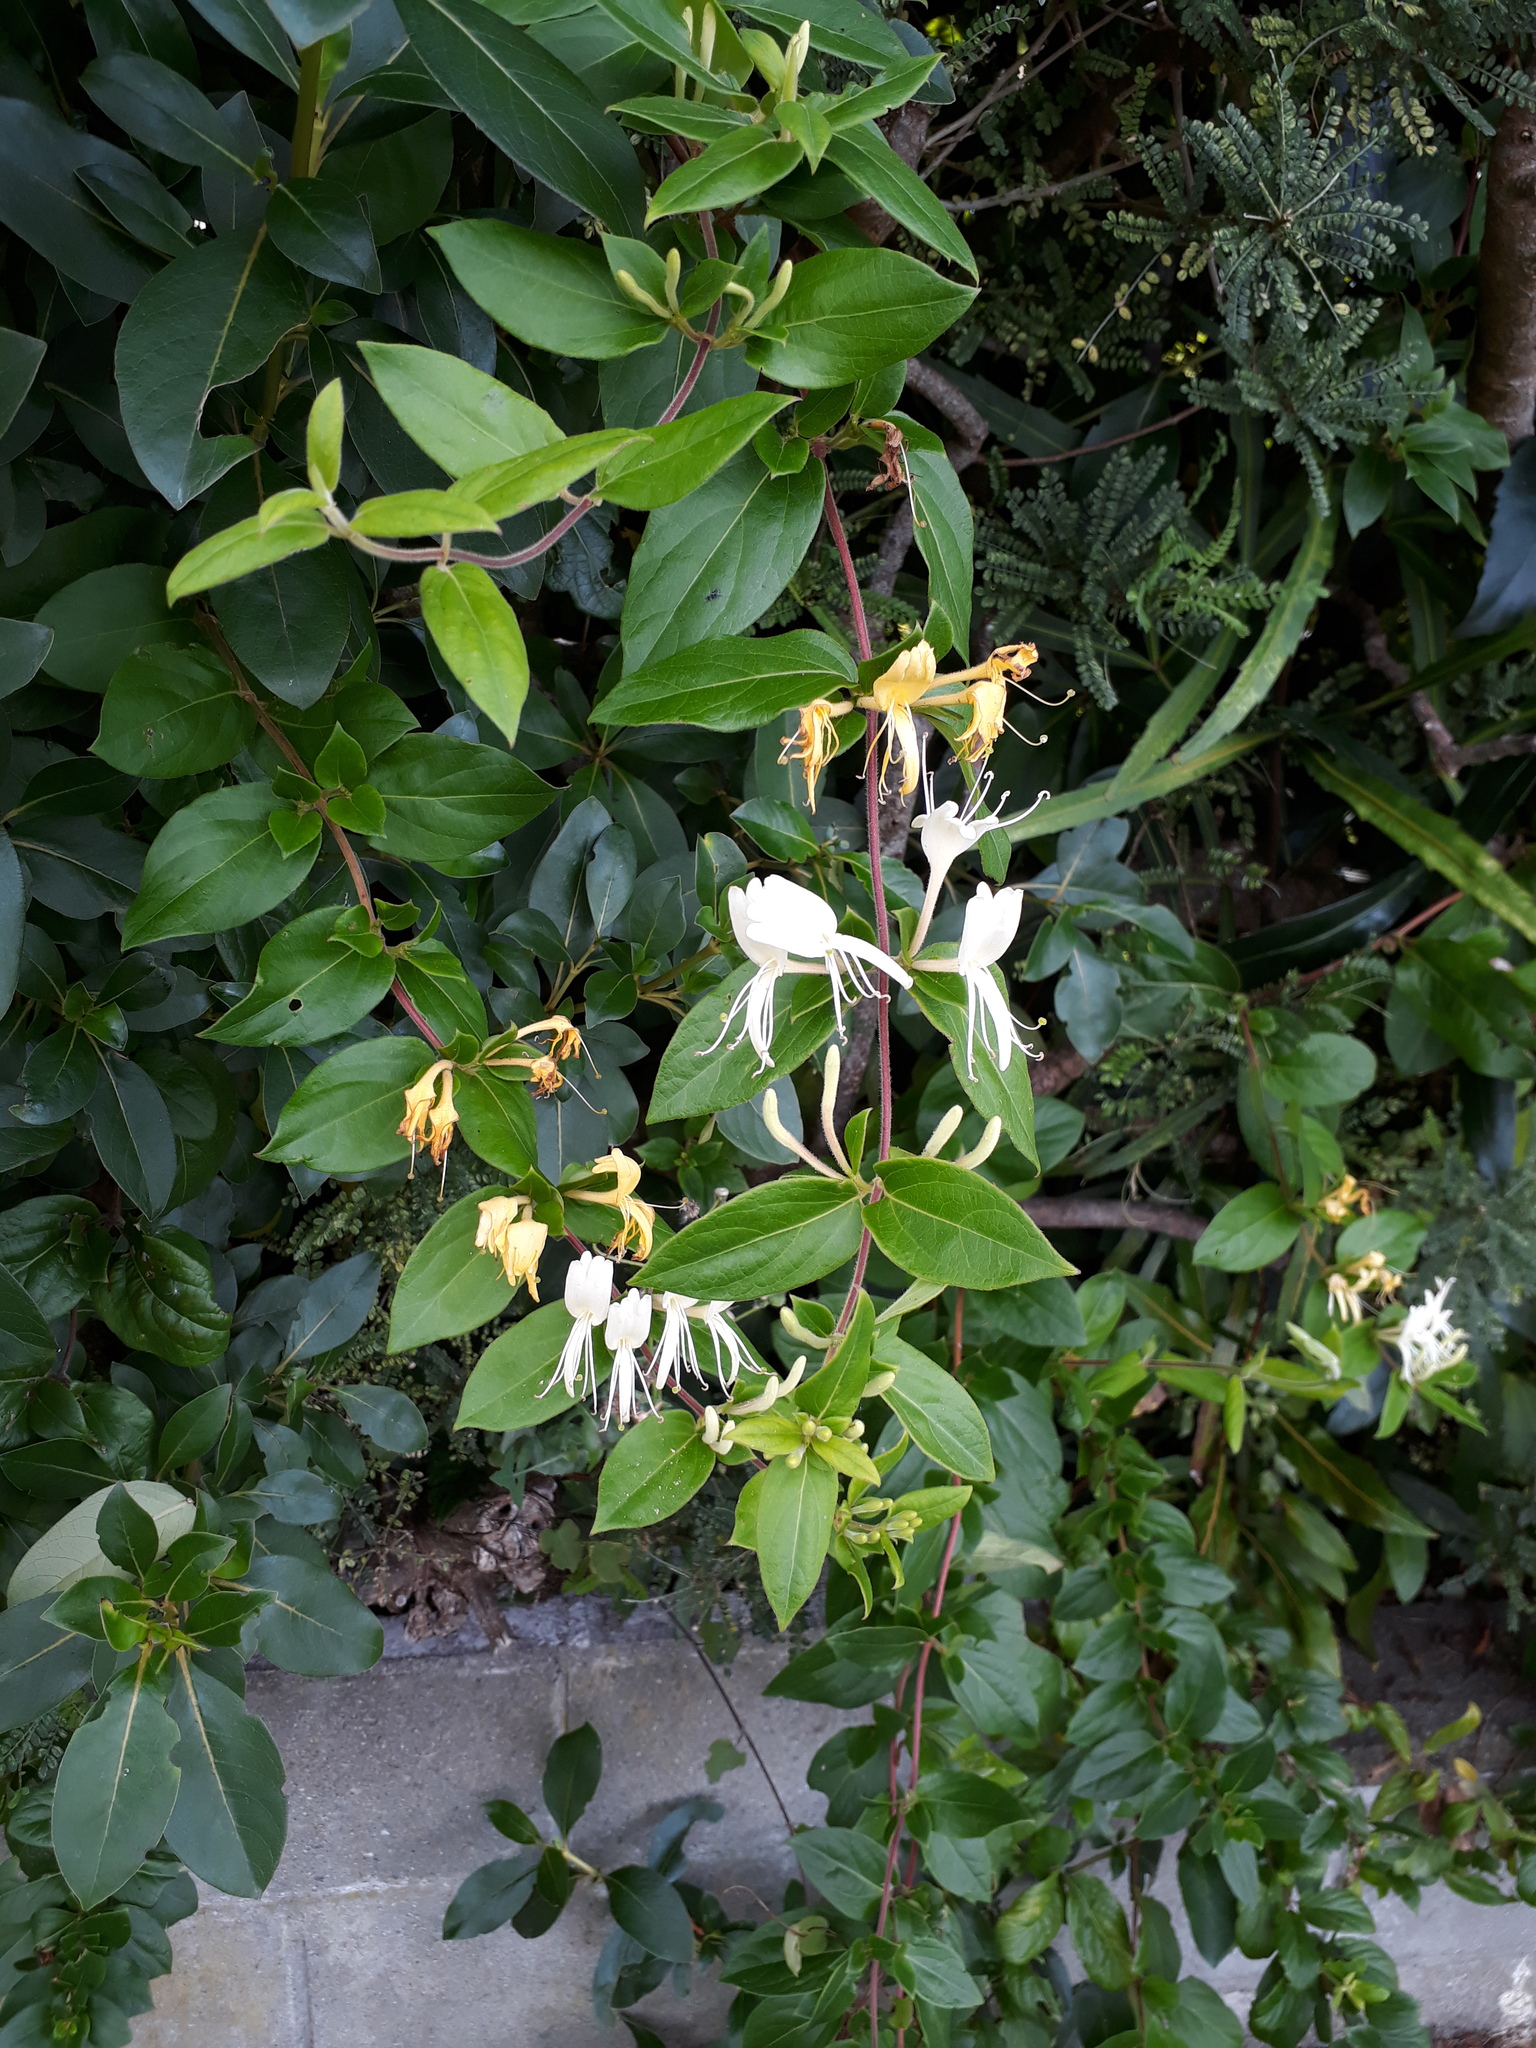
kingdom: Plantae
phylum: Tracheophyta
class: Magnoliopsida
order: Dipsacales
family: Caprifoliaceae
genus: Lonicera
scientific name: Lonicera japonica
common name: Japanese honeysuckle
